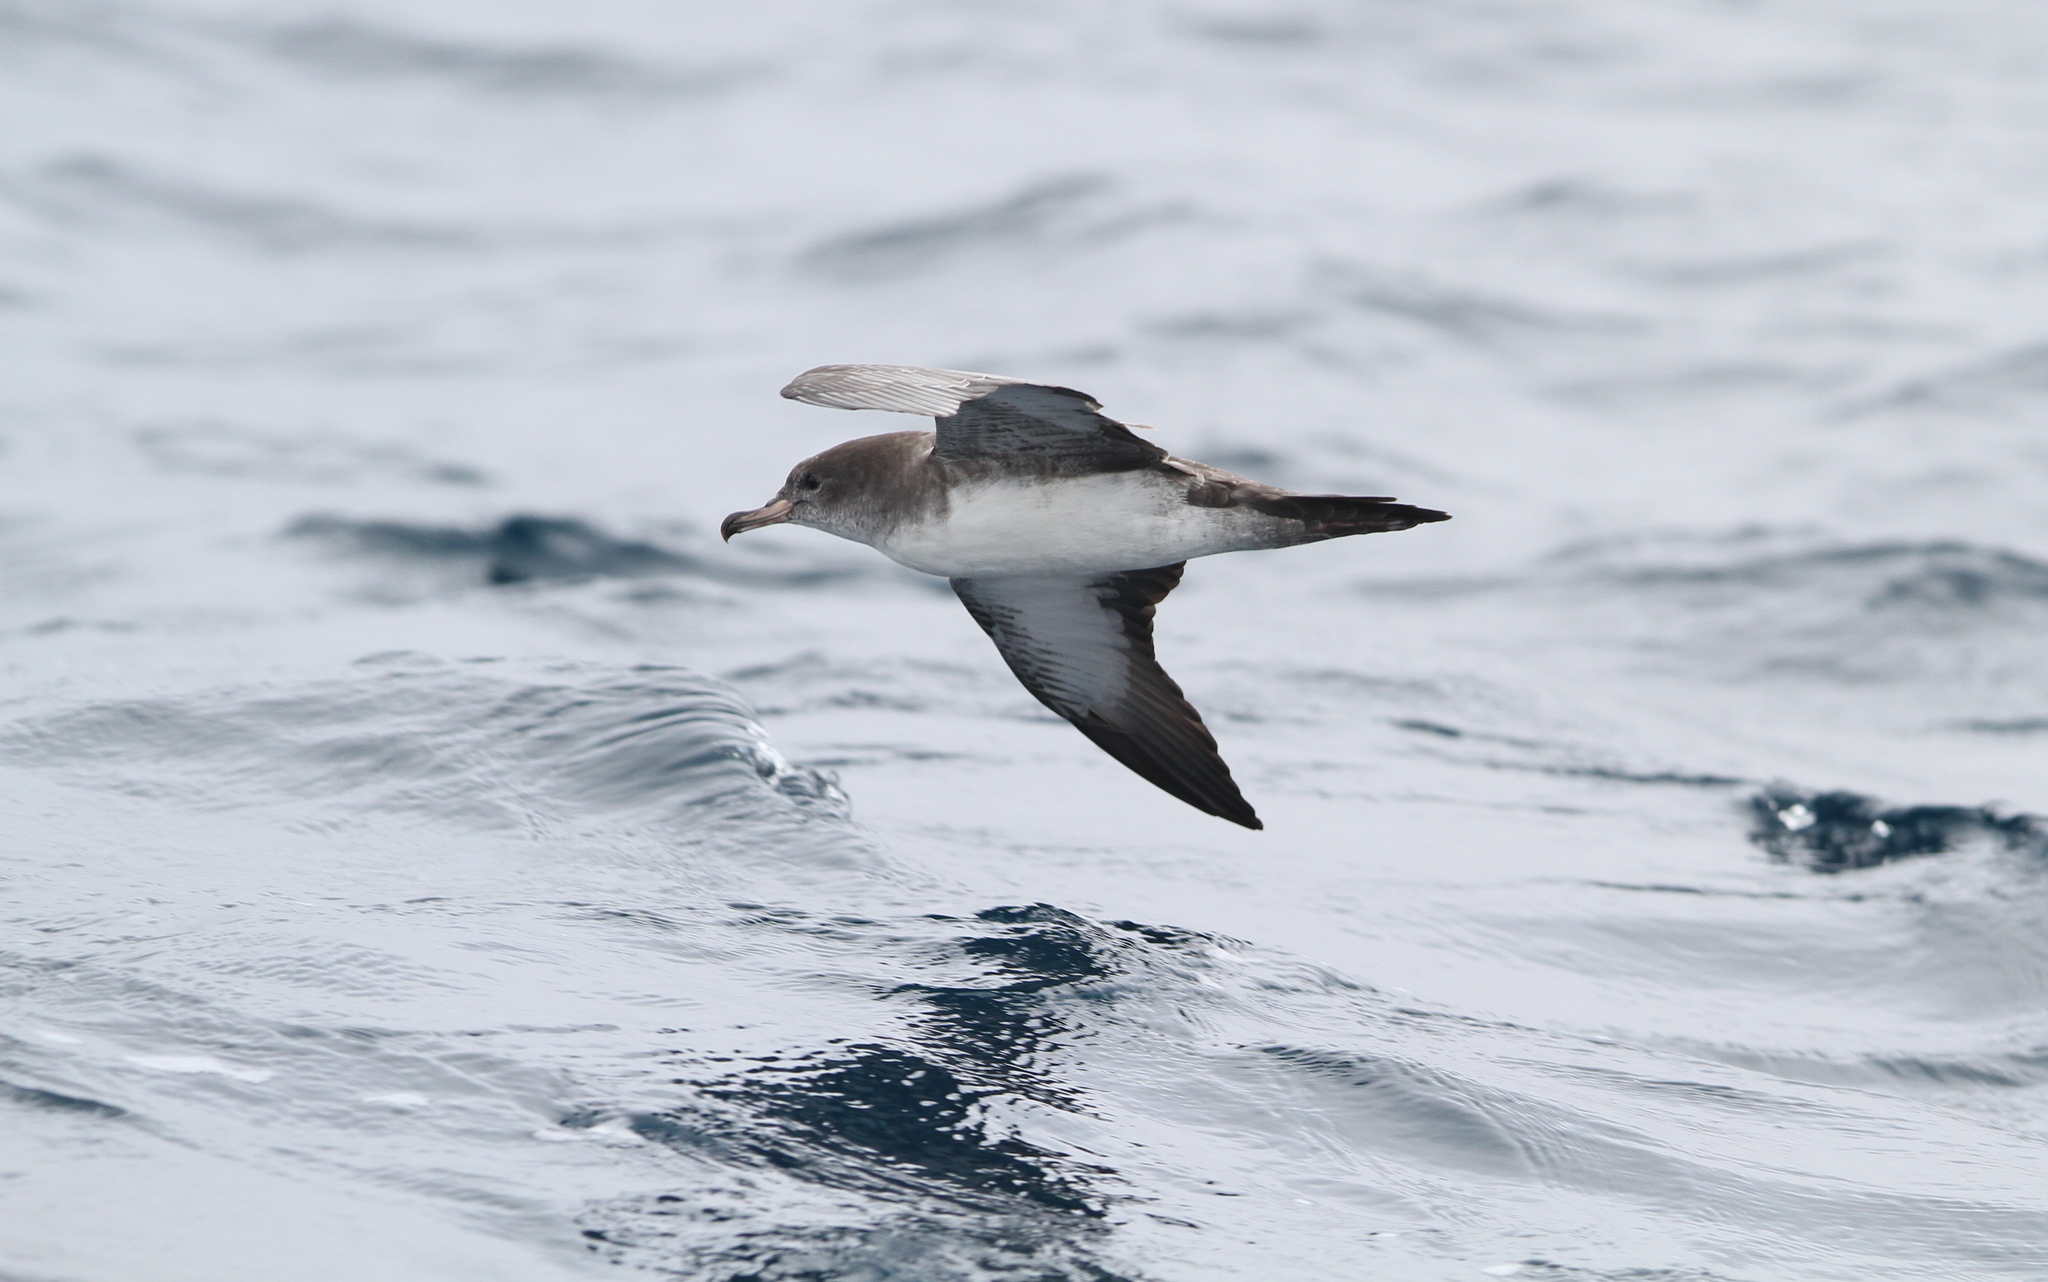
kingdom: Animalia
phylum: Chordata
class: Aves
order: Procellariiformes
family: Procellariidae
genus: Puffinus
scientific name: Puffinus creatopus
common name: Pink-footed shearwater
